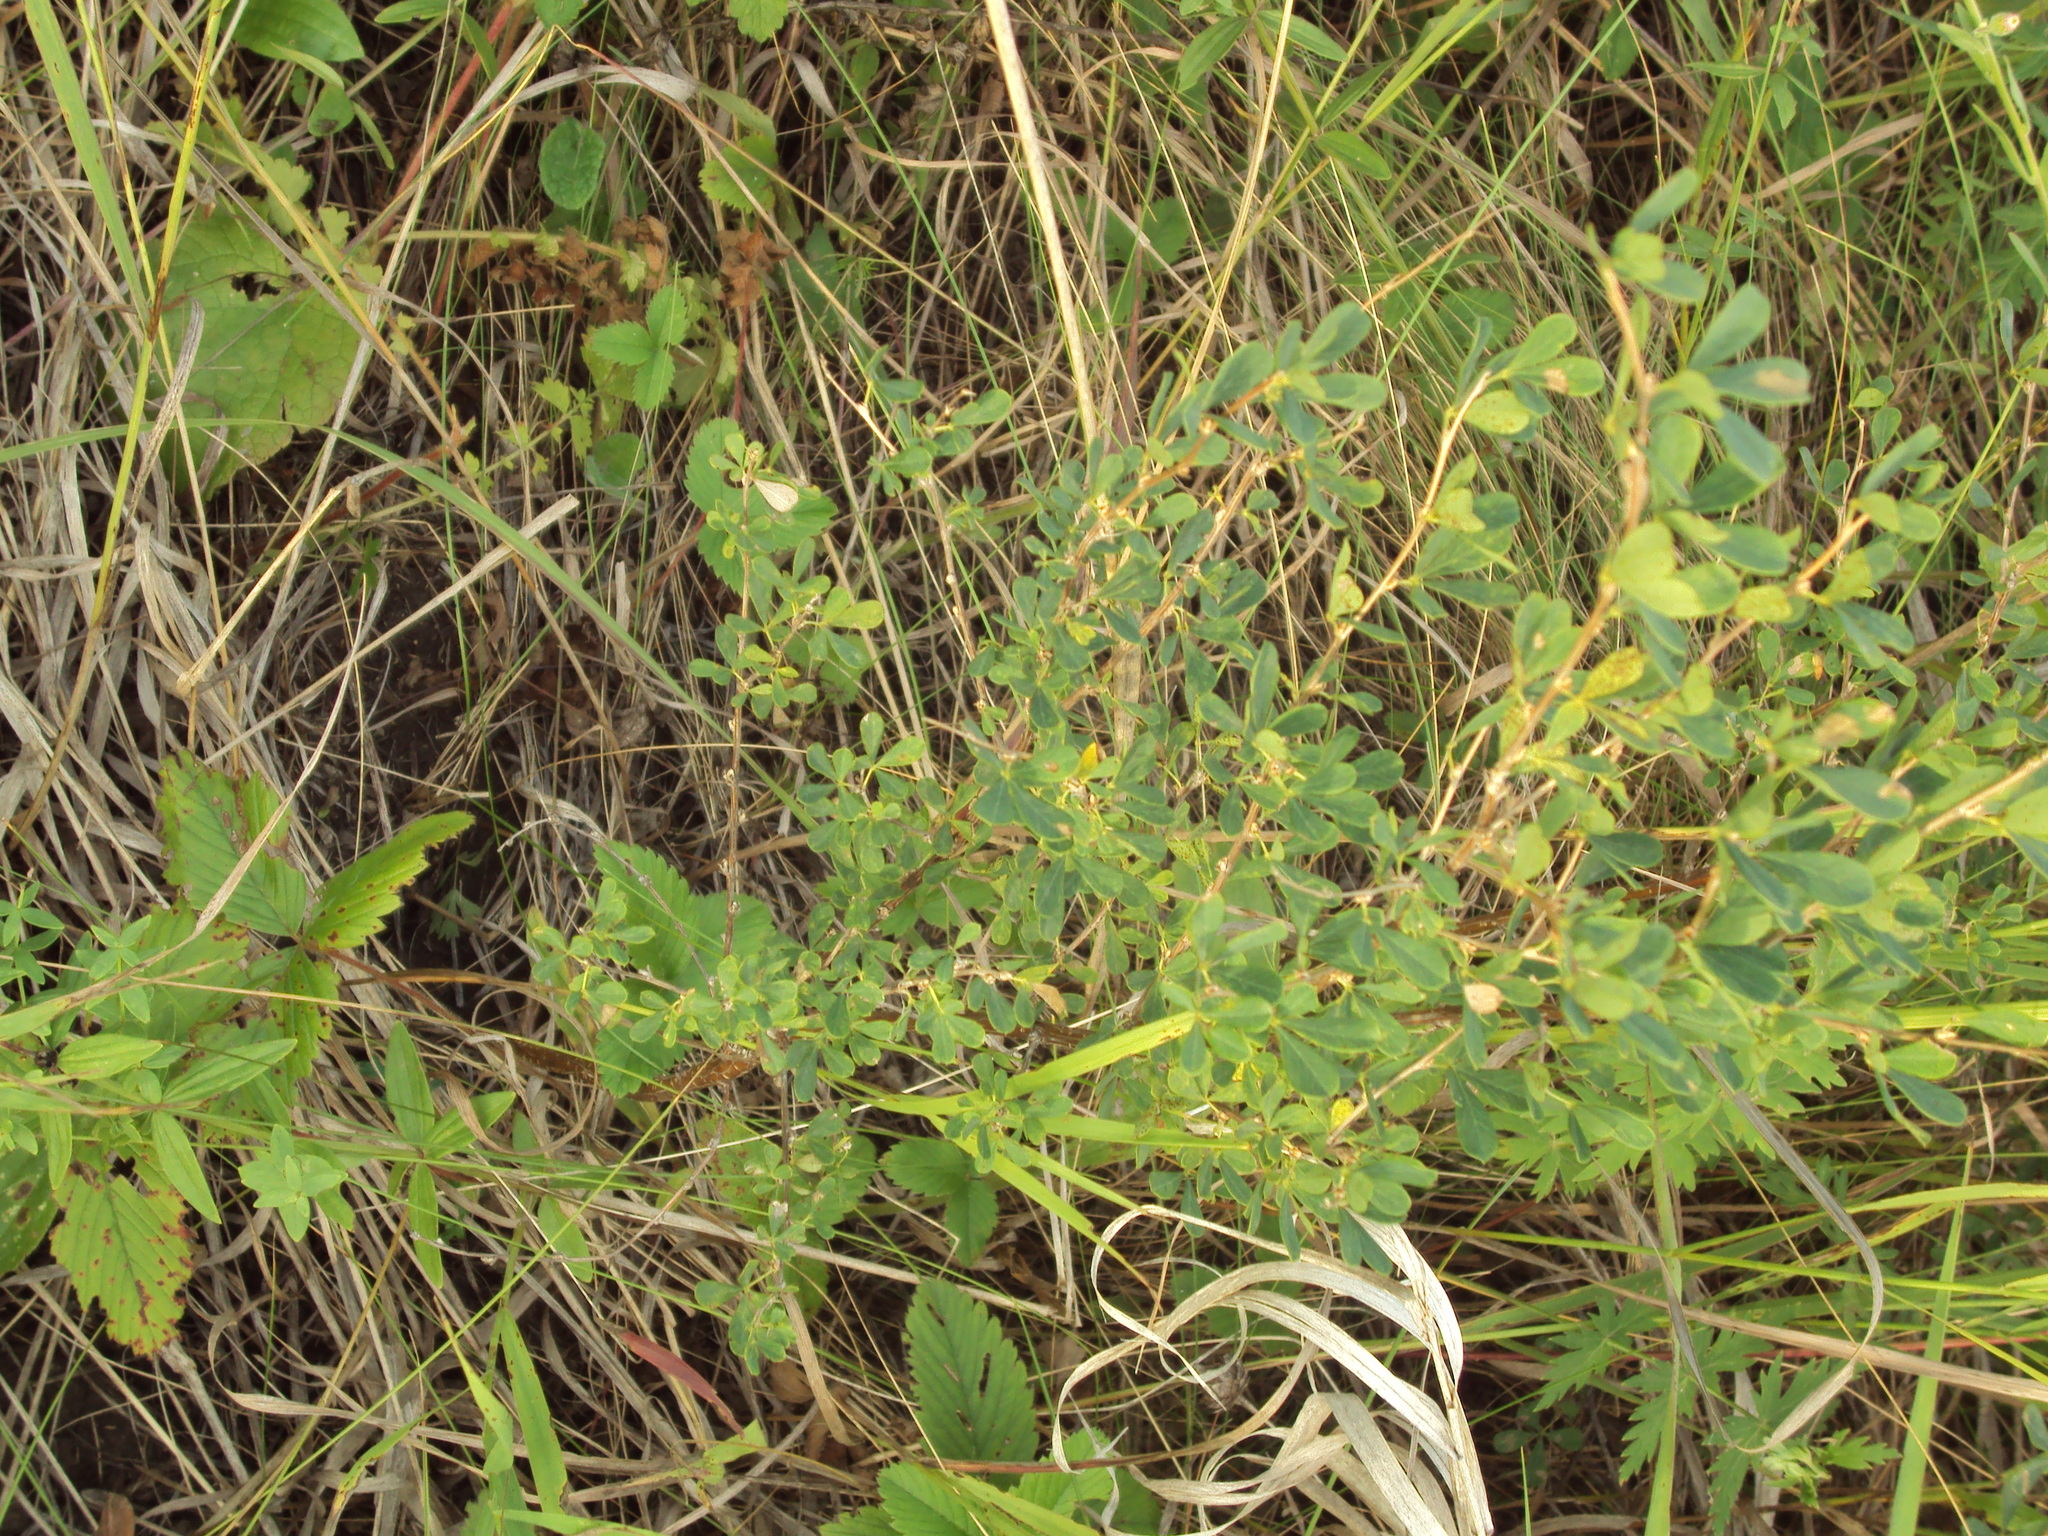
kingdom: Plantae
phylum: Tracheophyta
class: Magnoliopsida
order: Fabales
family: Fabaceae
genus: Caragana
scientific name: Caragana frutex
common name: Russian peashrub
